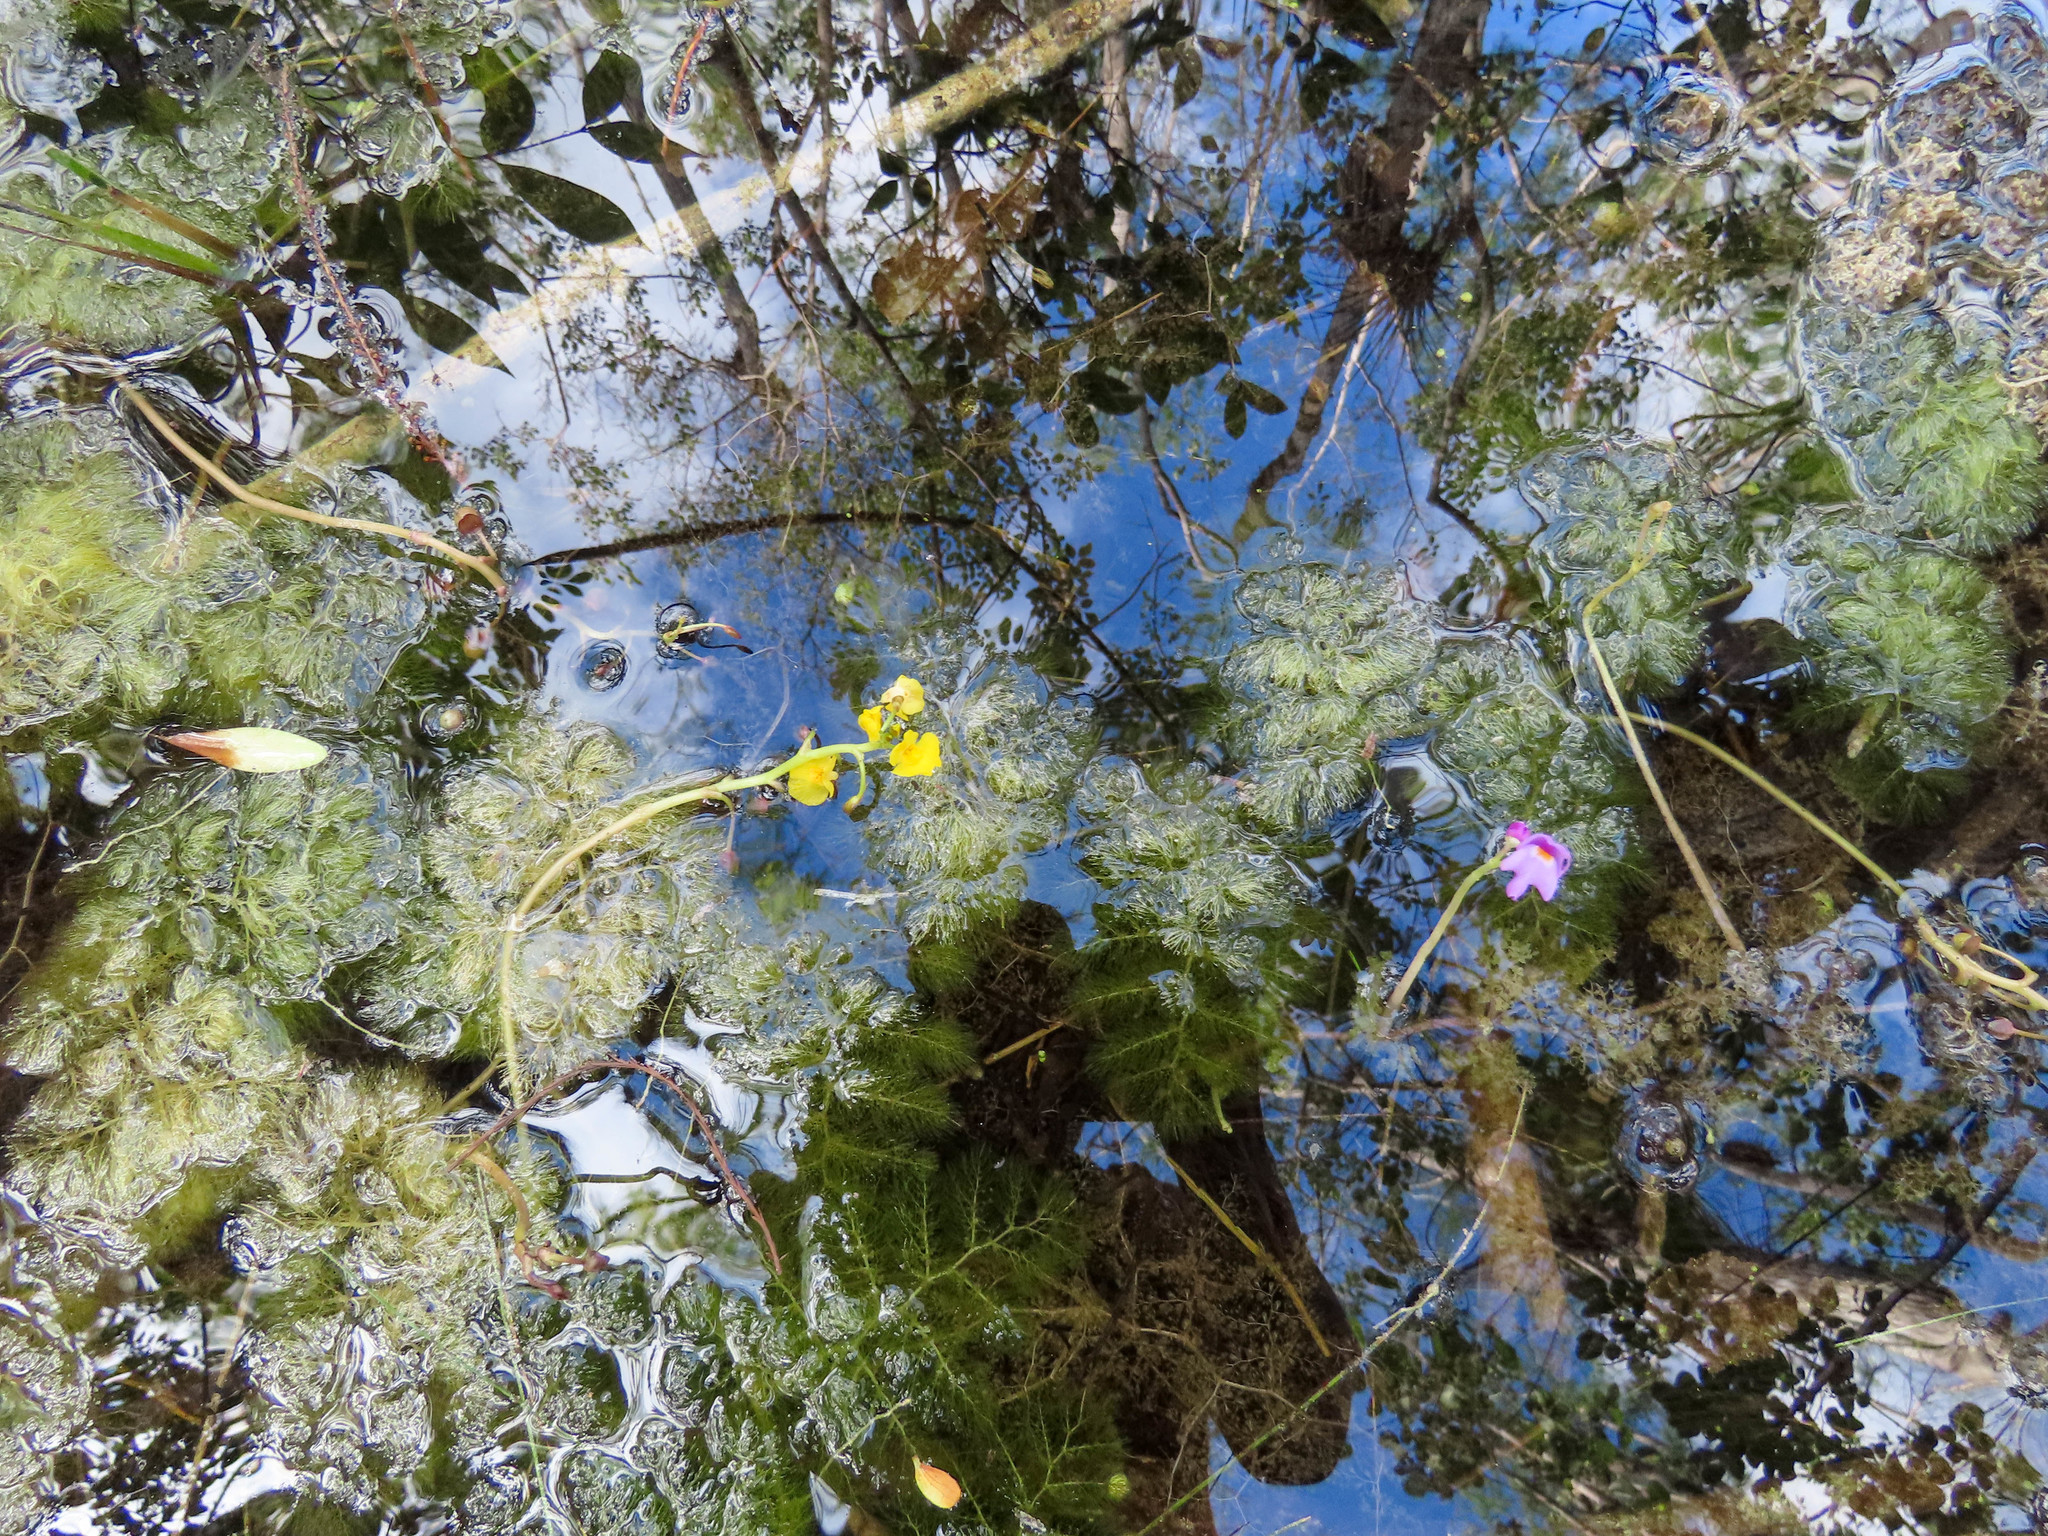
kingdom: Plantae
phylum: Tracheophyta
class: Magnoliopsida
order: Lamiales
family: Lentibulariaceae
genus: Utricularia
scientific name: Utricularia foliosa
